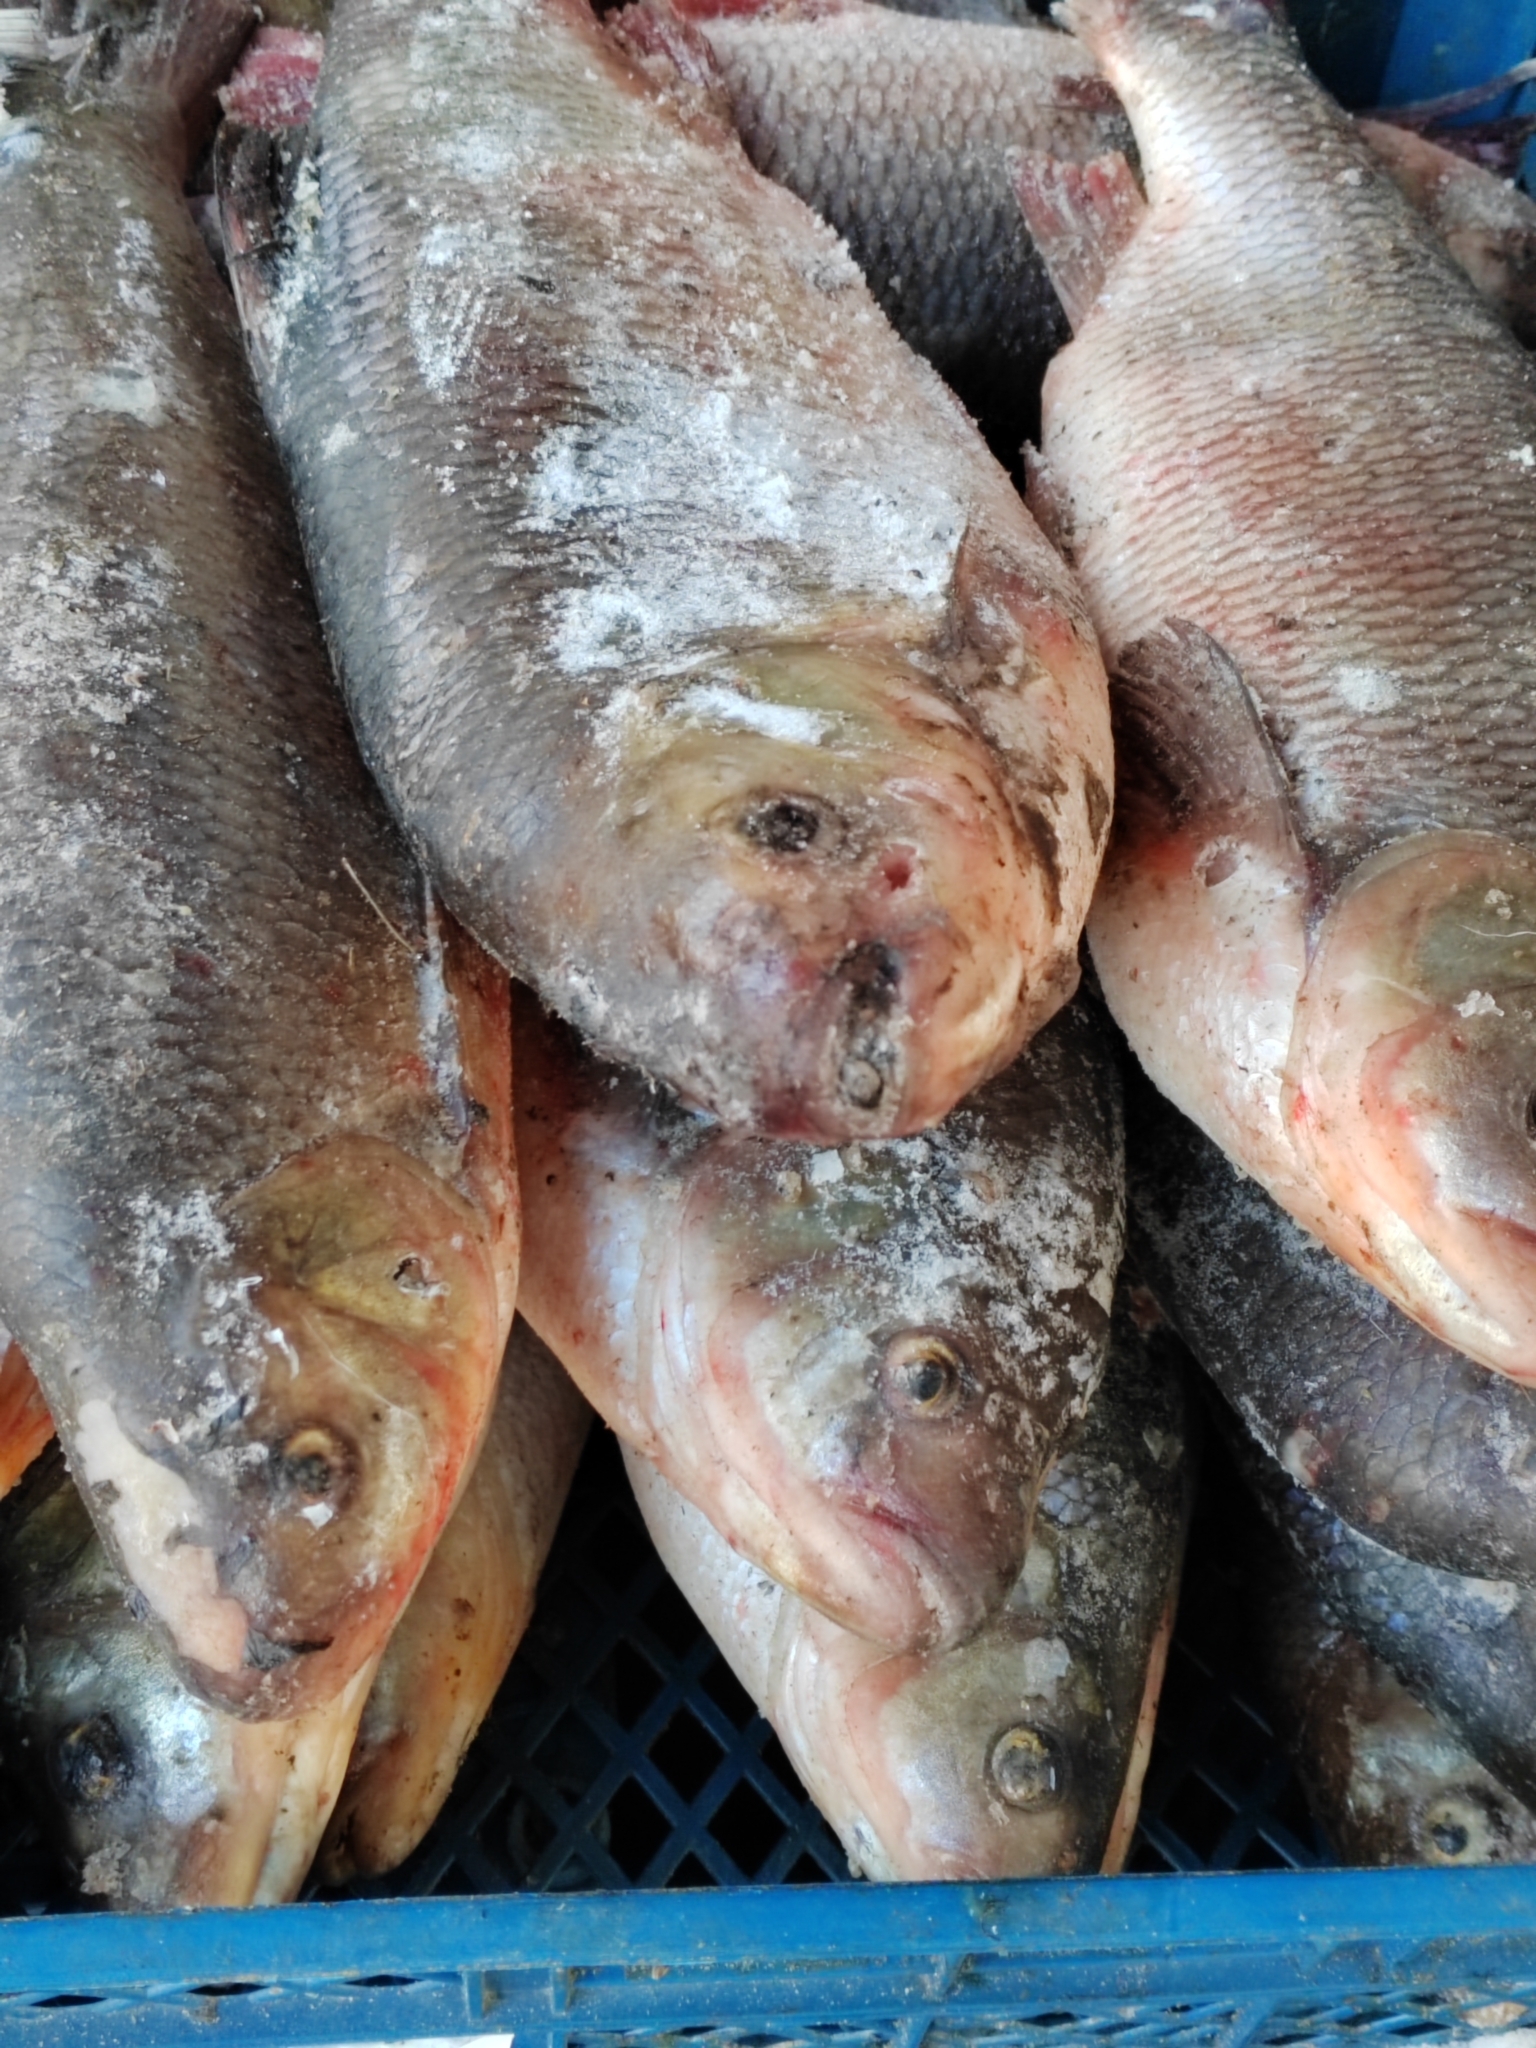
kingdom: Animalia
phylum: Chordata
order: Cypriniformes
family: Cyprinidae
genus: Leuciscus
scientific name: Leuciscus idus
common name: Ide
